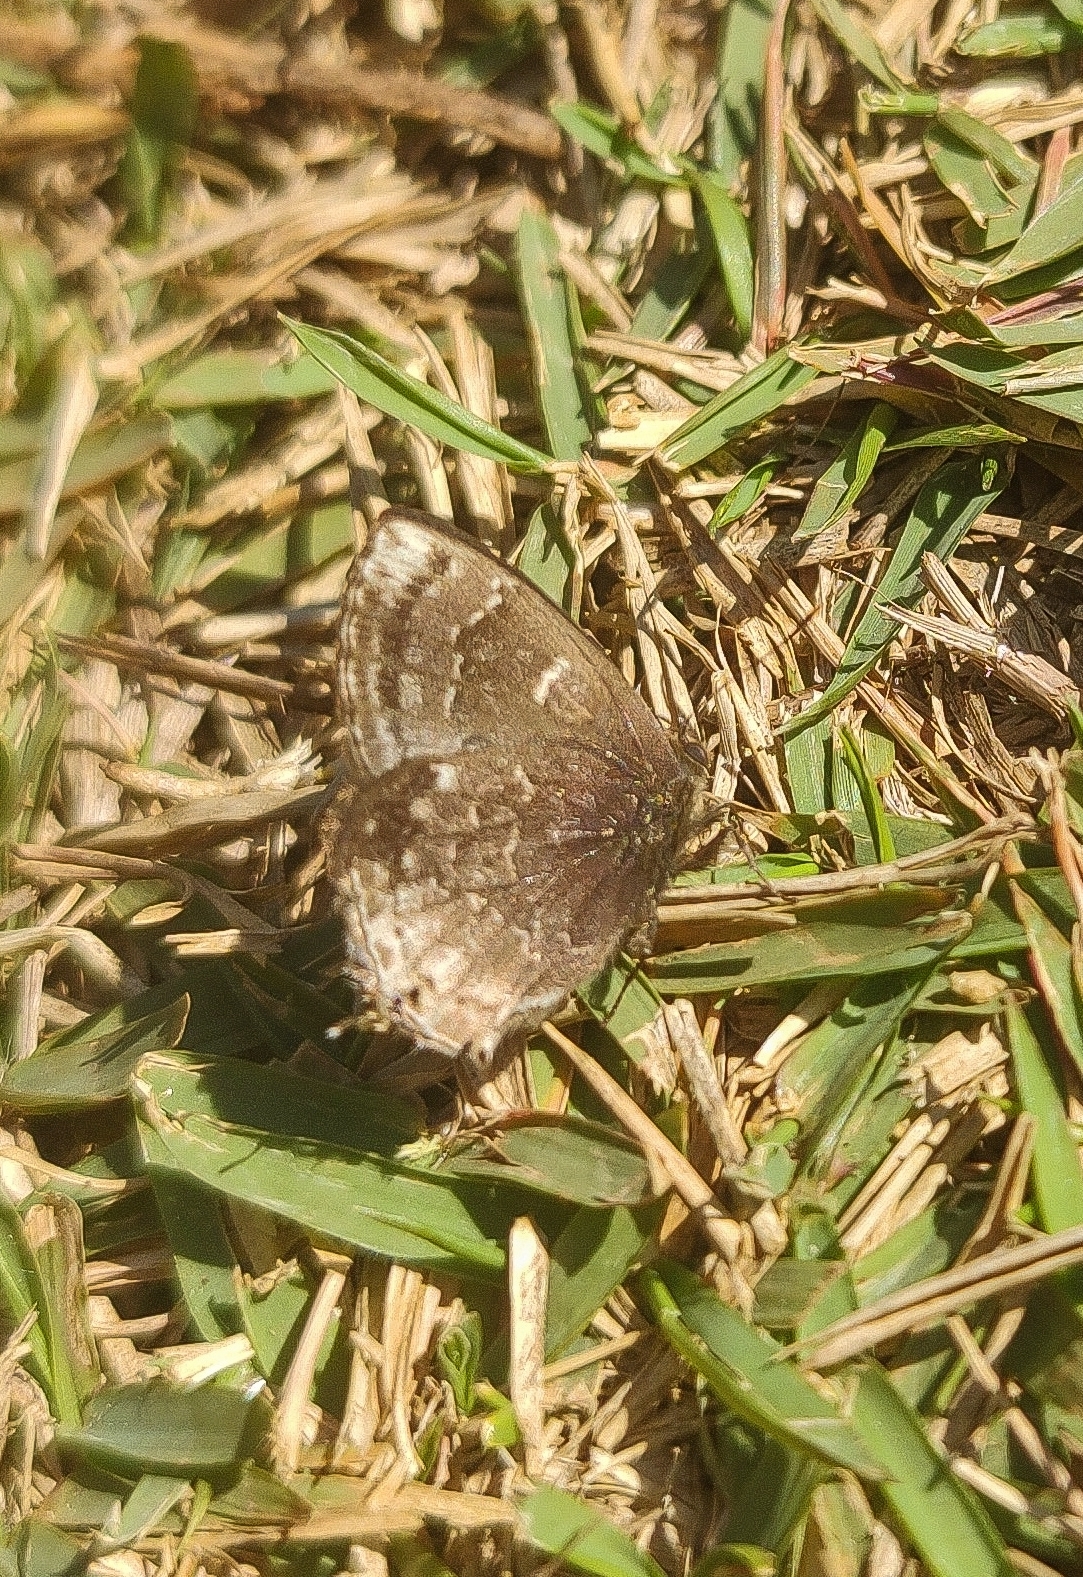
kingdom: Animalia
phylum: Arthropoda
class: Insecta
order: Lepidoptera
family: Lycaenidae
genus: Ocaria
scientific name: Ocaria ocrisia
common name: Black hairstreak
